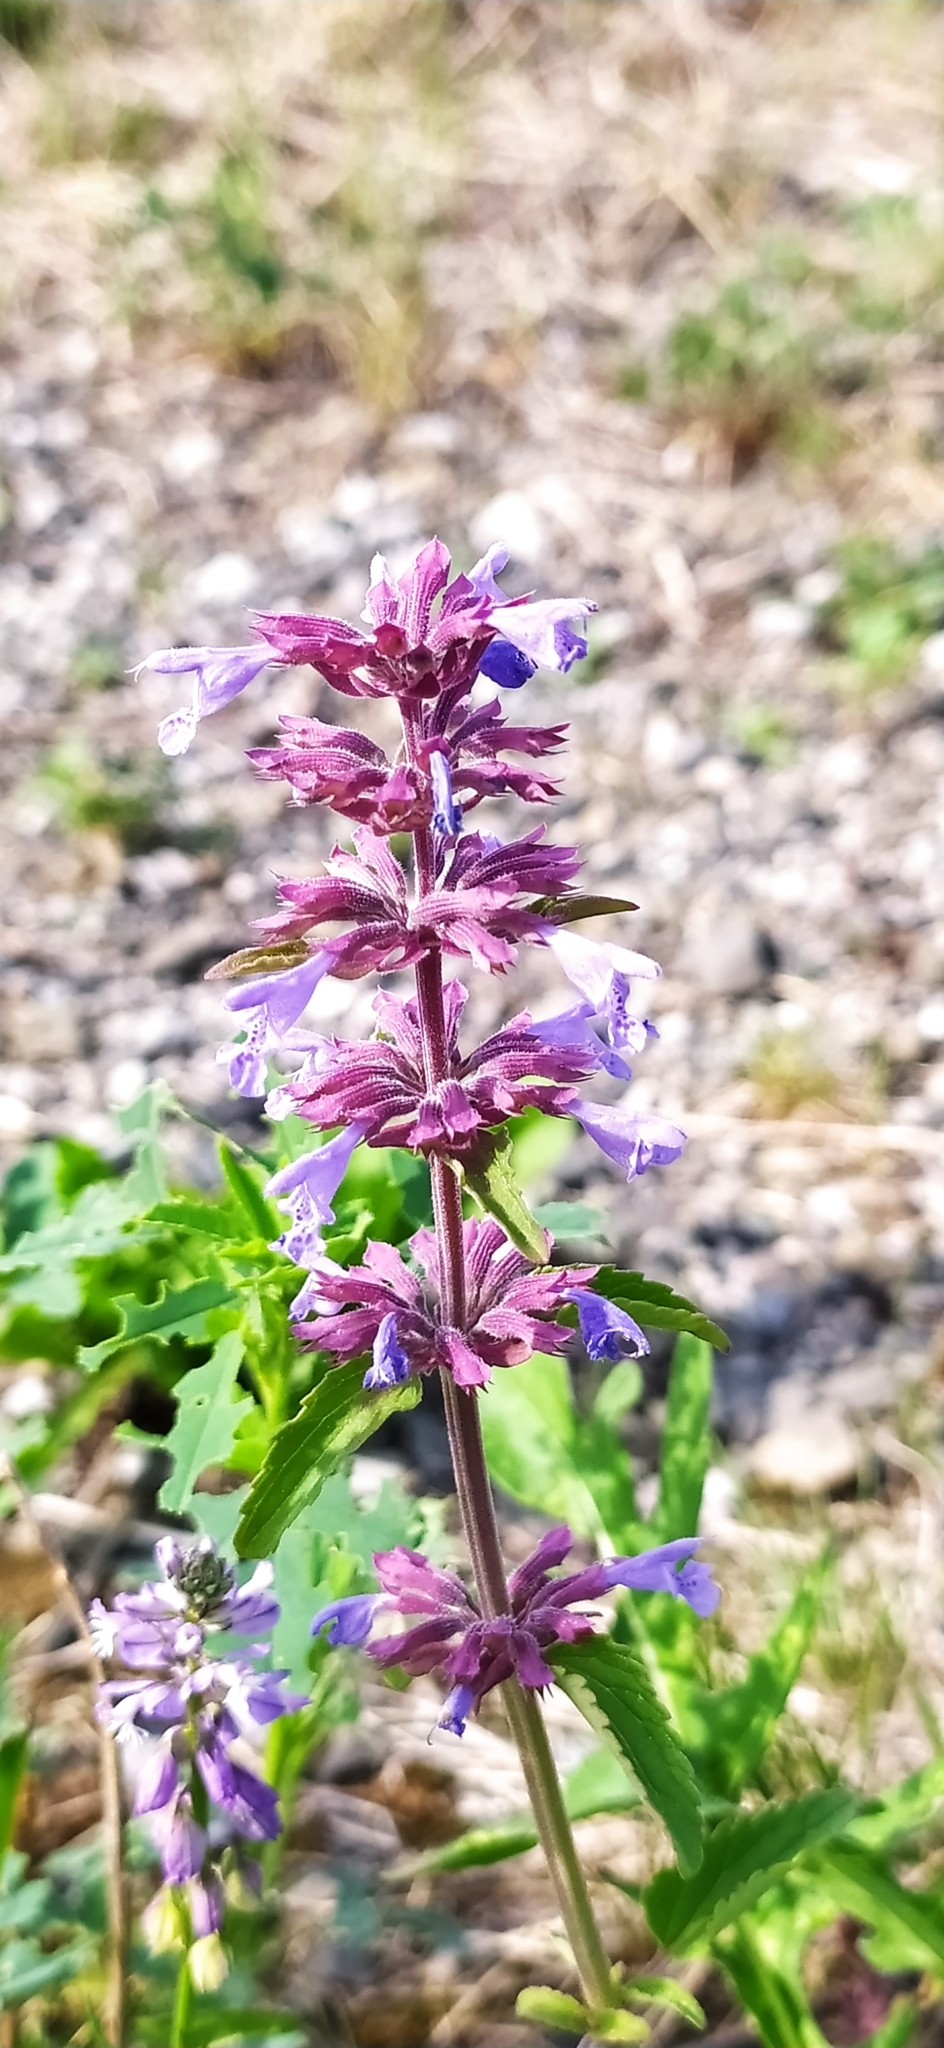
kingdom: Plantae
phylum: Tracheophyta
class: Magnoliopsida
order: Lamiales
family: Lamiaceae
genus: Dracocephalum
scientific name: Dracocephalum nutans
